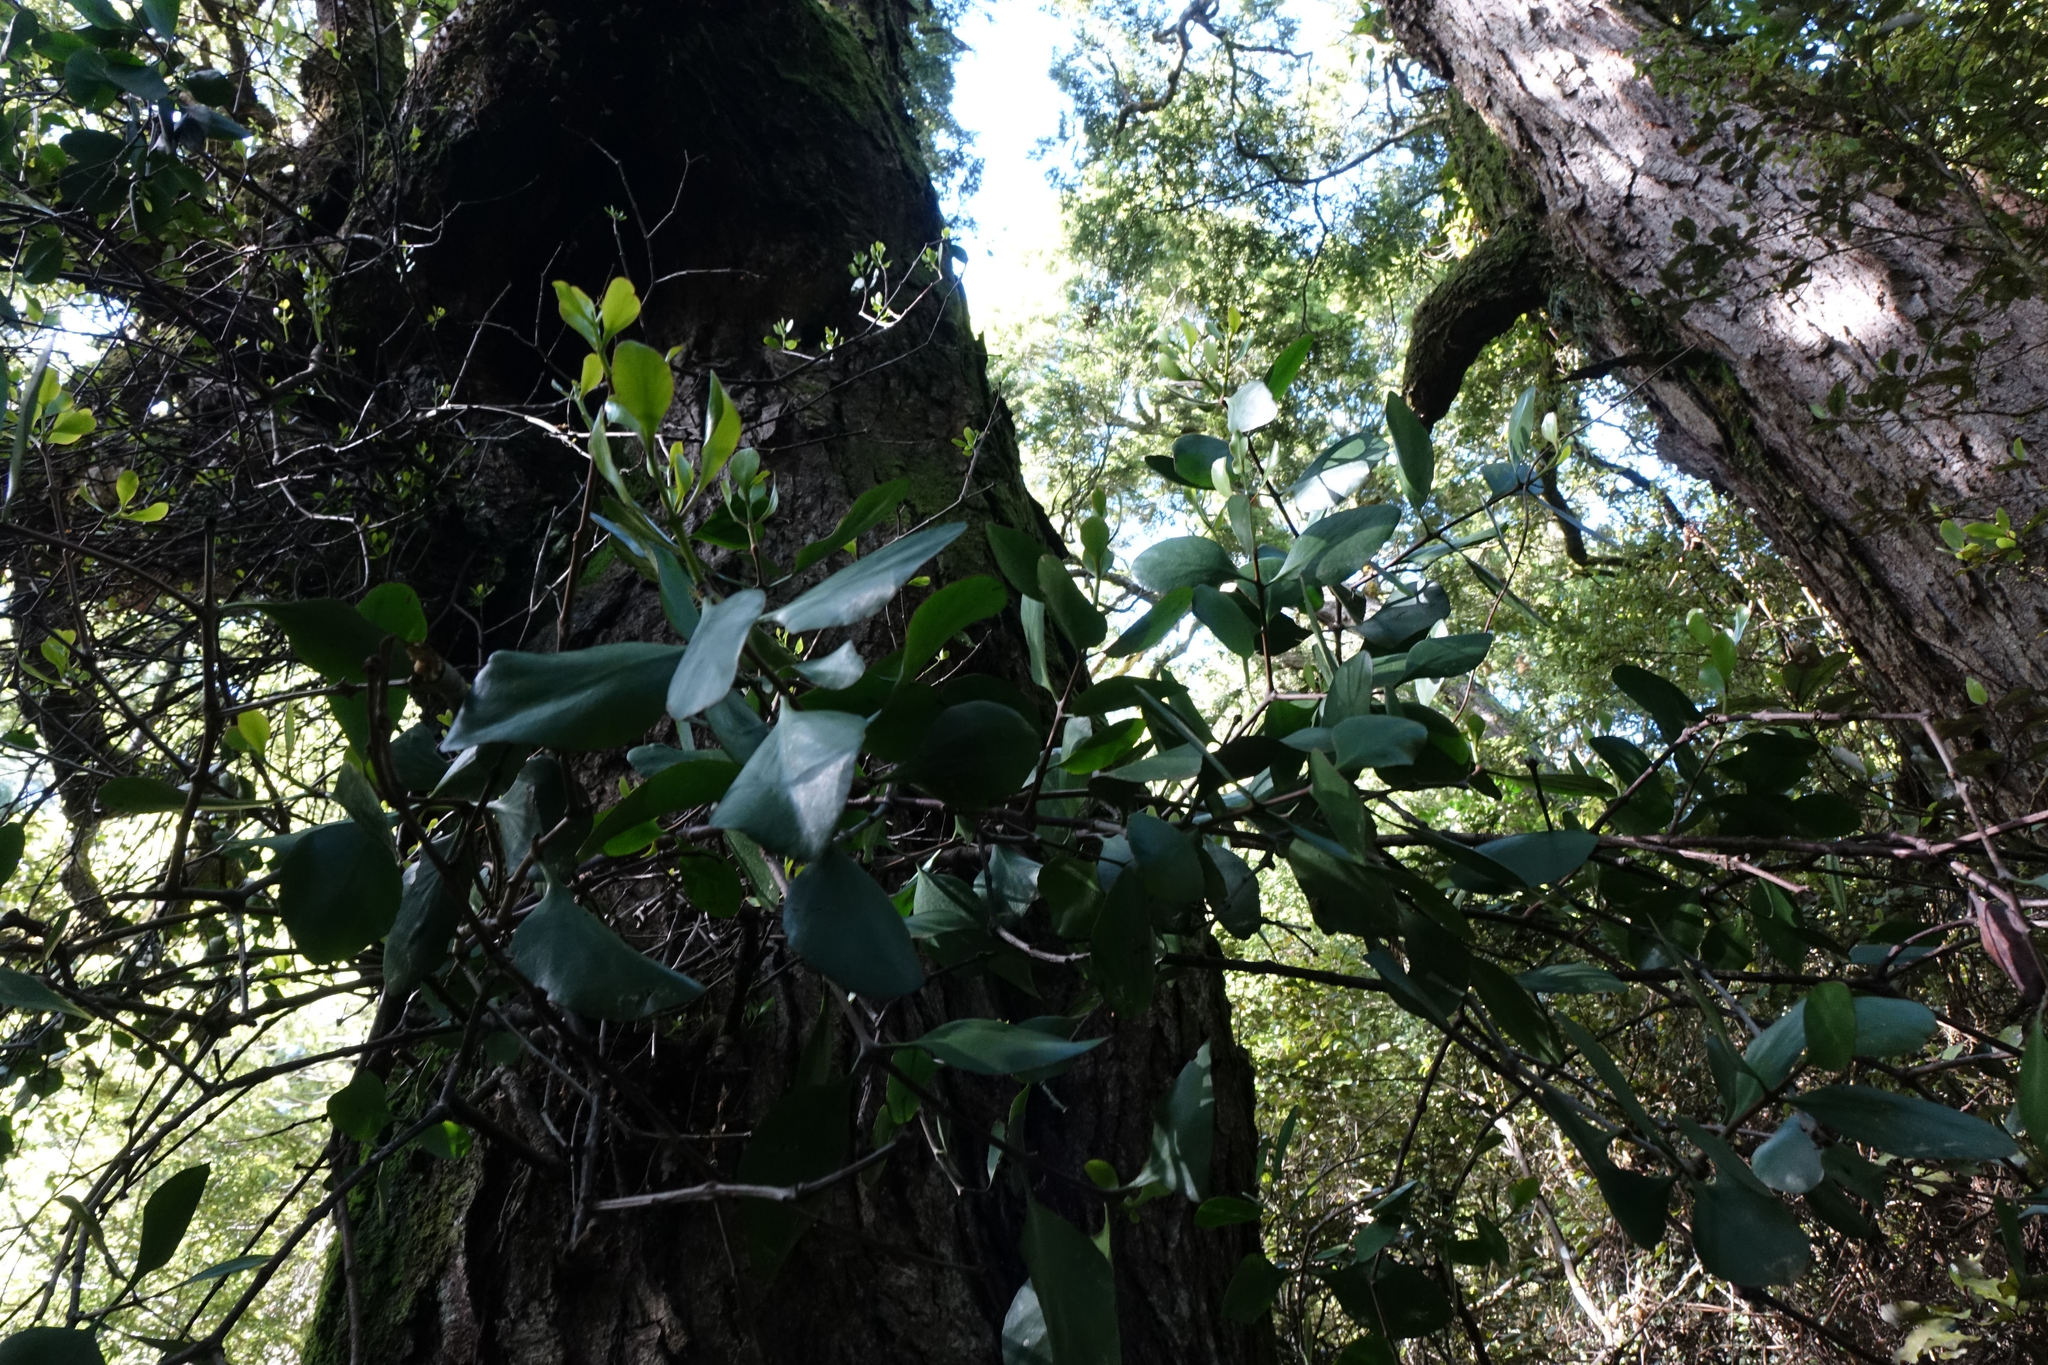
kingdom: Plantae
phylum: Tracheophyta
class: Magnoliopsida
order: Santalales
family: Loranthaceae
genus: Peraxilla
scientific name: Peraxilla colensoi
